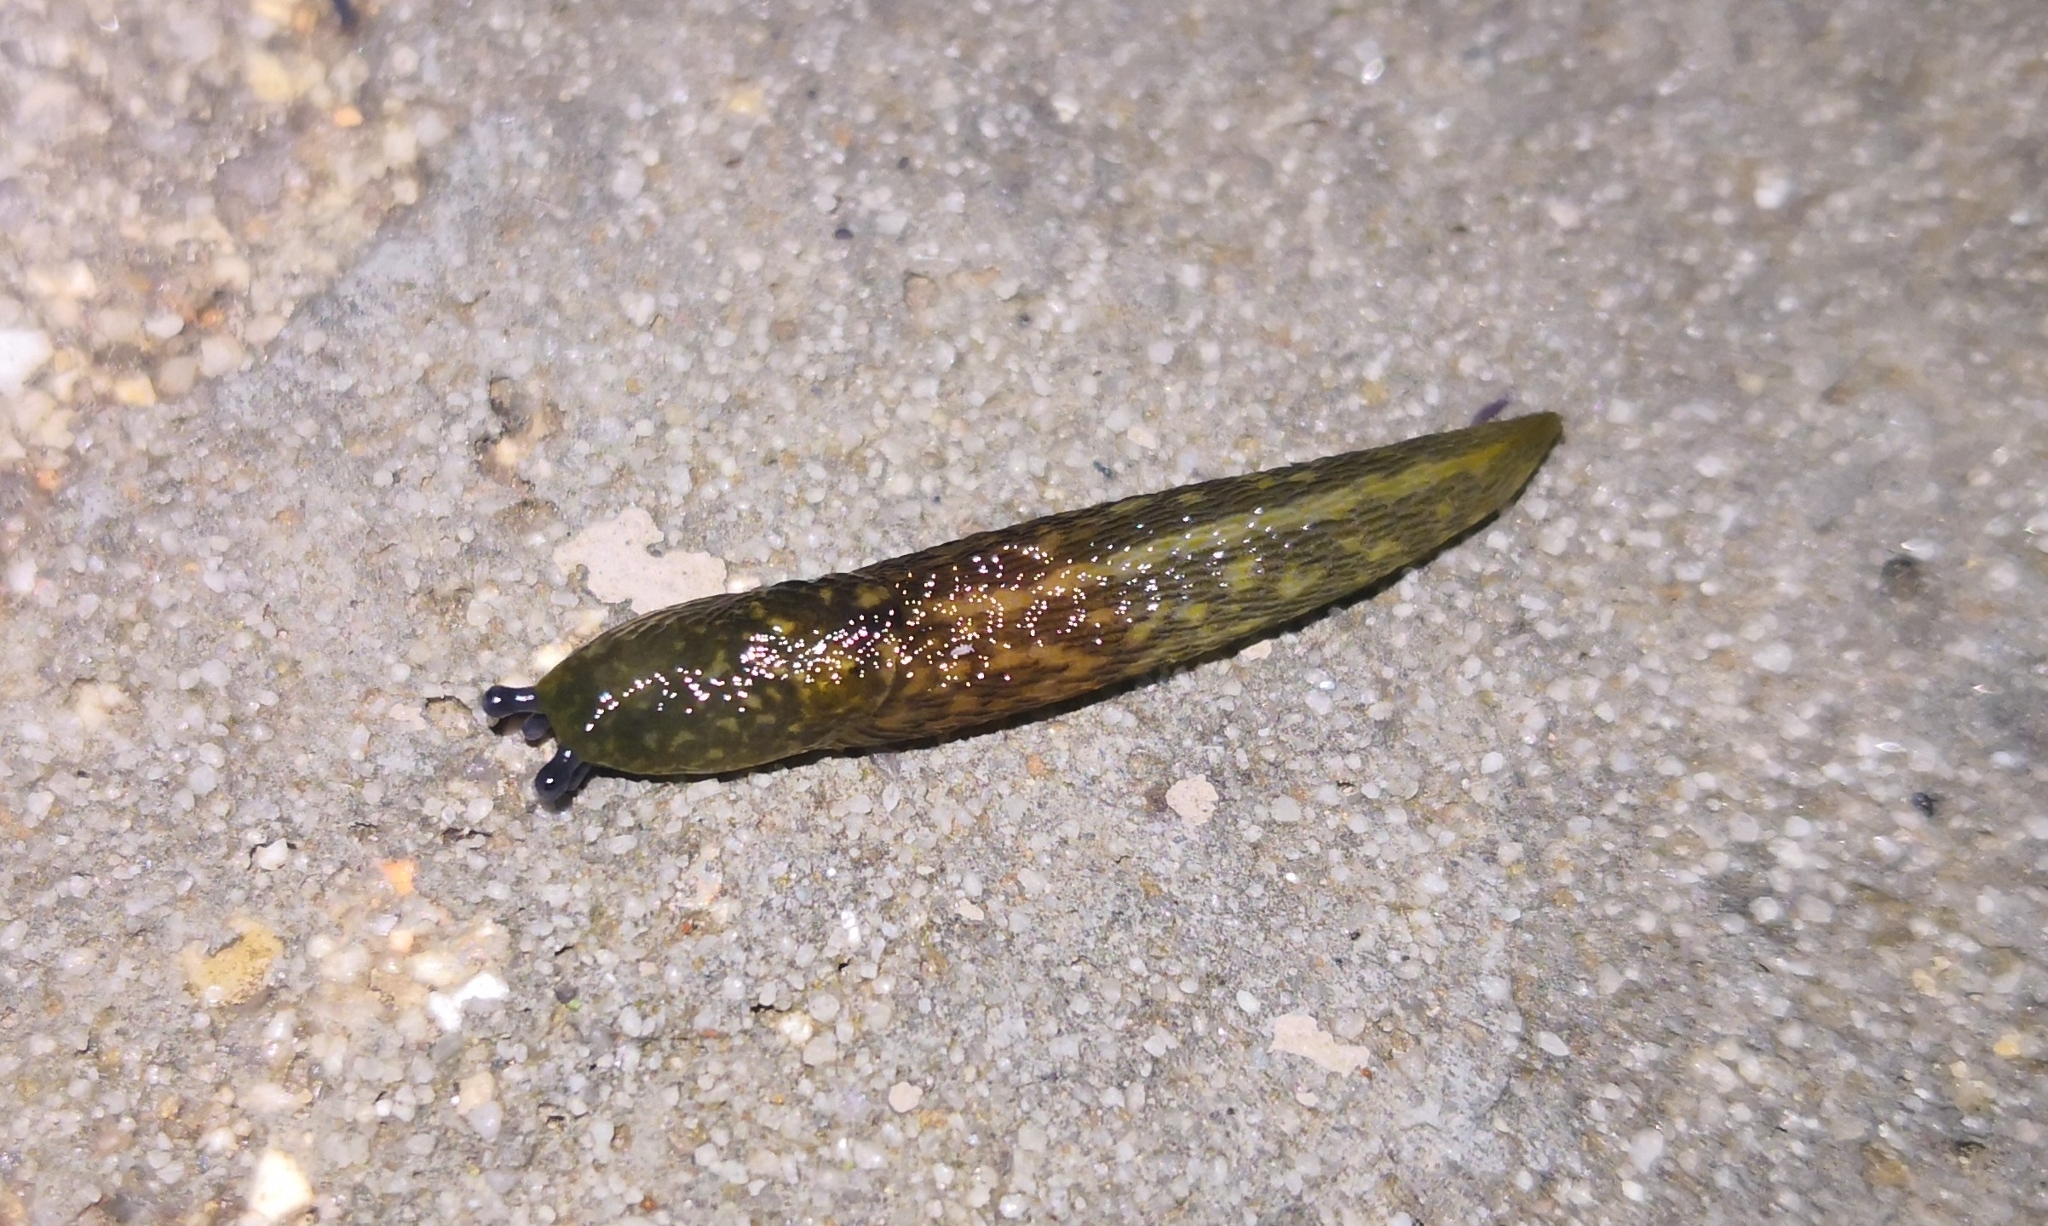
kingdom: Animalia
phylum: Mollusca
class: Gastropoda
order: Stylommatophora
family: Limacidae
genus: Limacus
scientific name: Limacus flavus
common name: Yellow gardenslug
